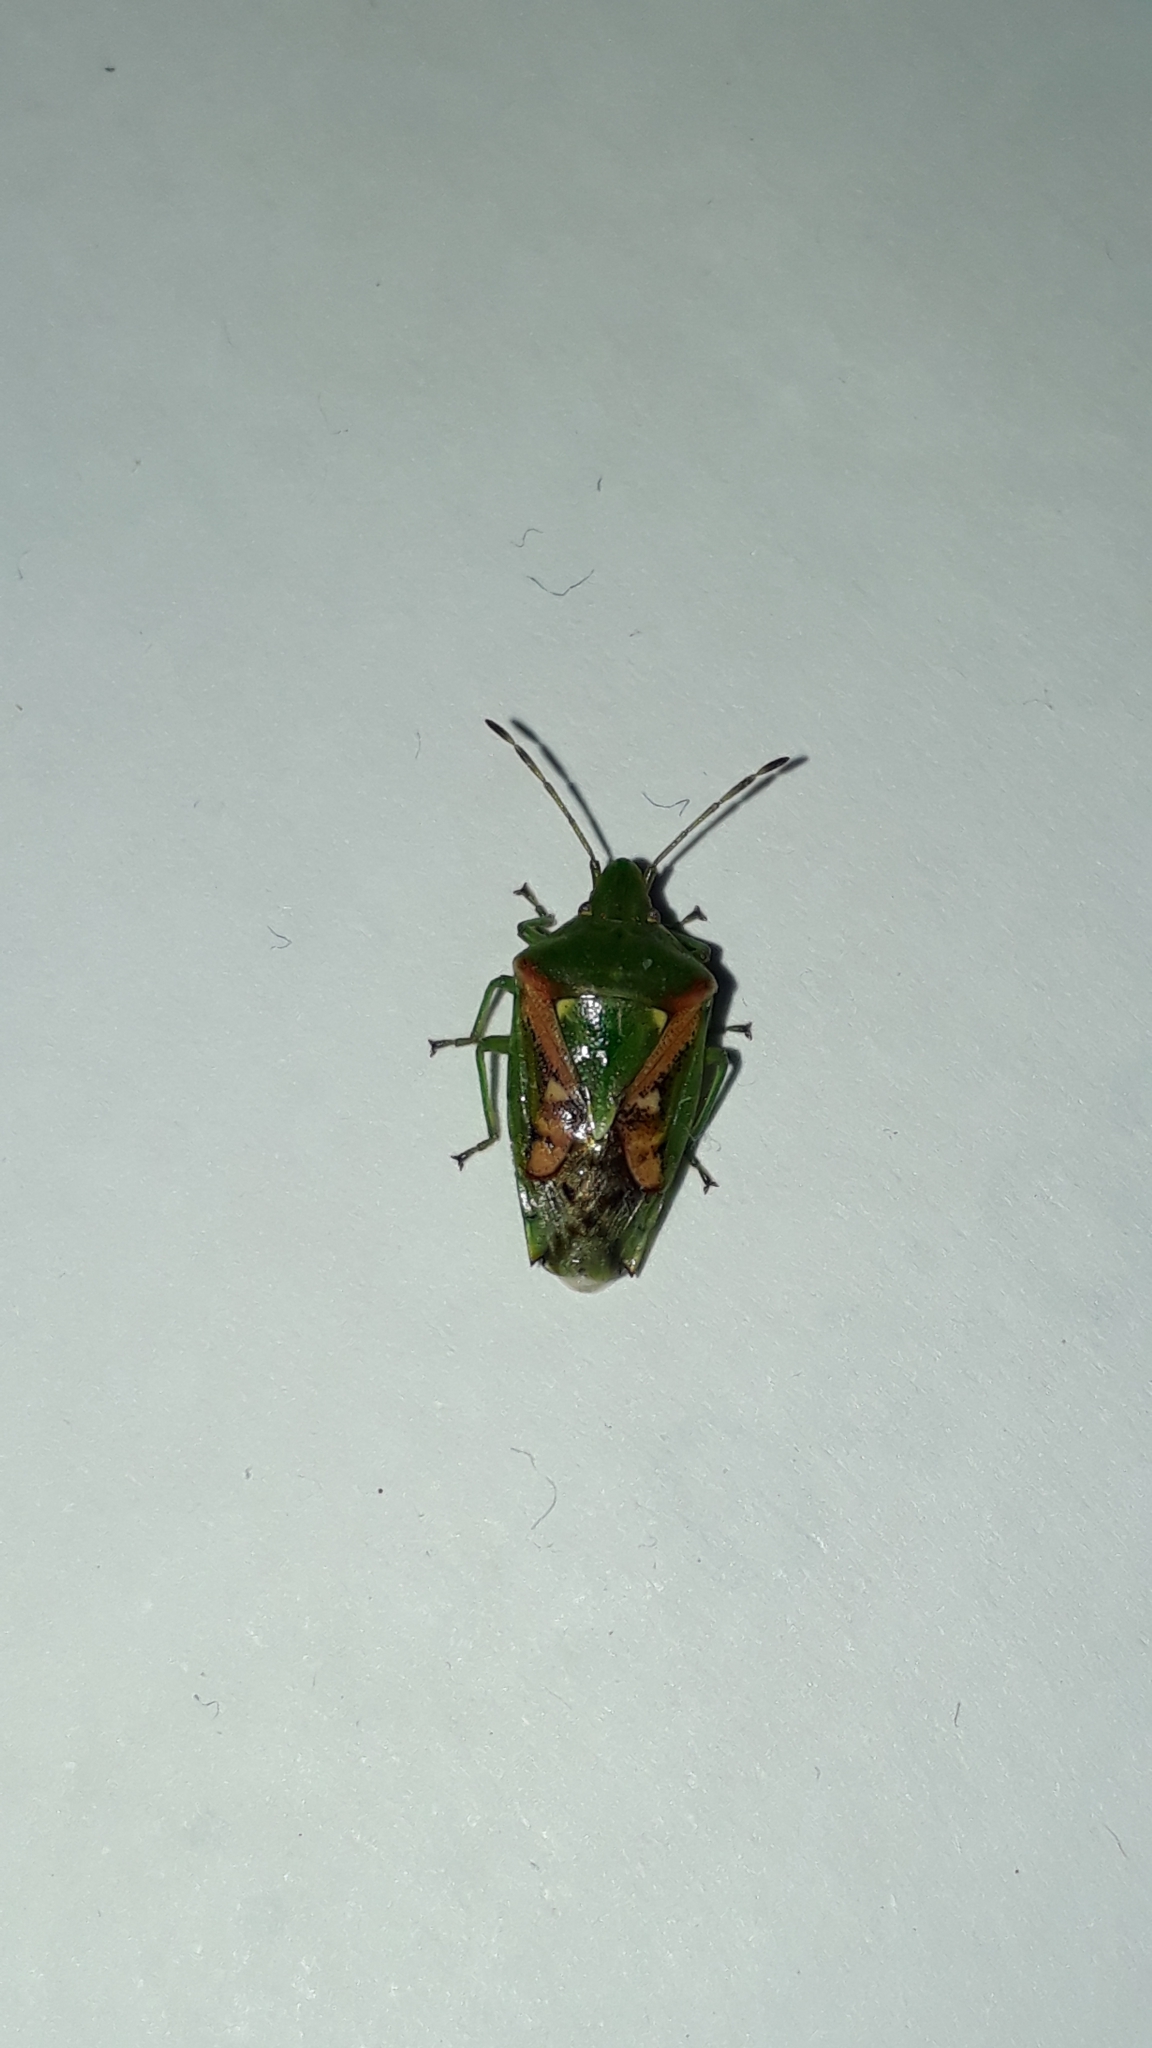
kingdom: Animalia
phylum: Arthropoda
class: Insecta
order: Hemiptera
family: Acanthosomatidae
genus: Cyphostethus
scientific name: Cyphostethus tristriatus
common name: Juniper shieldbug
